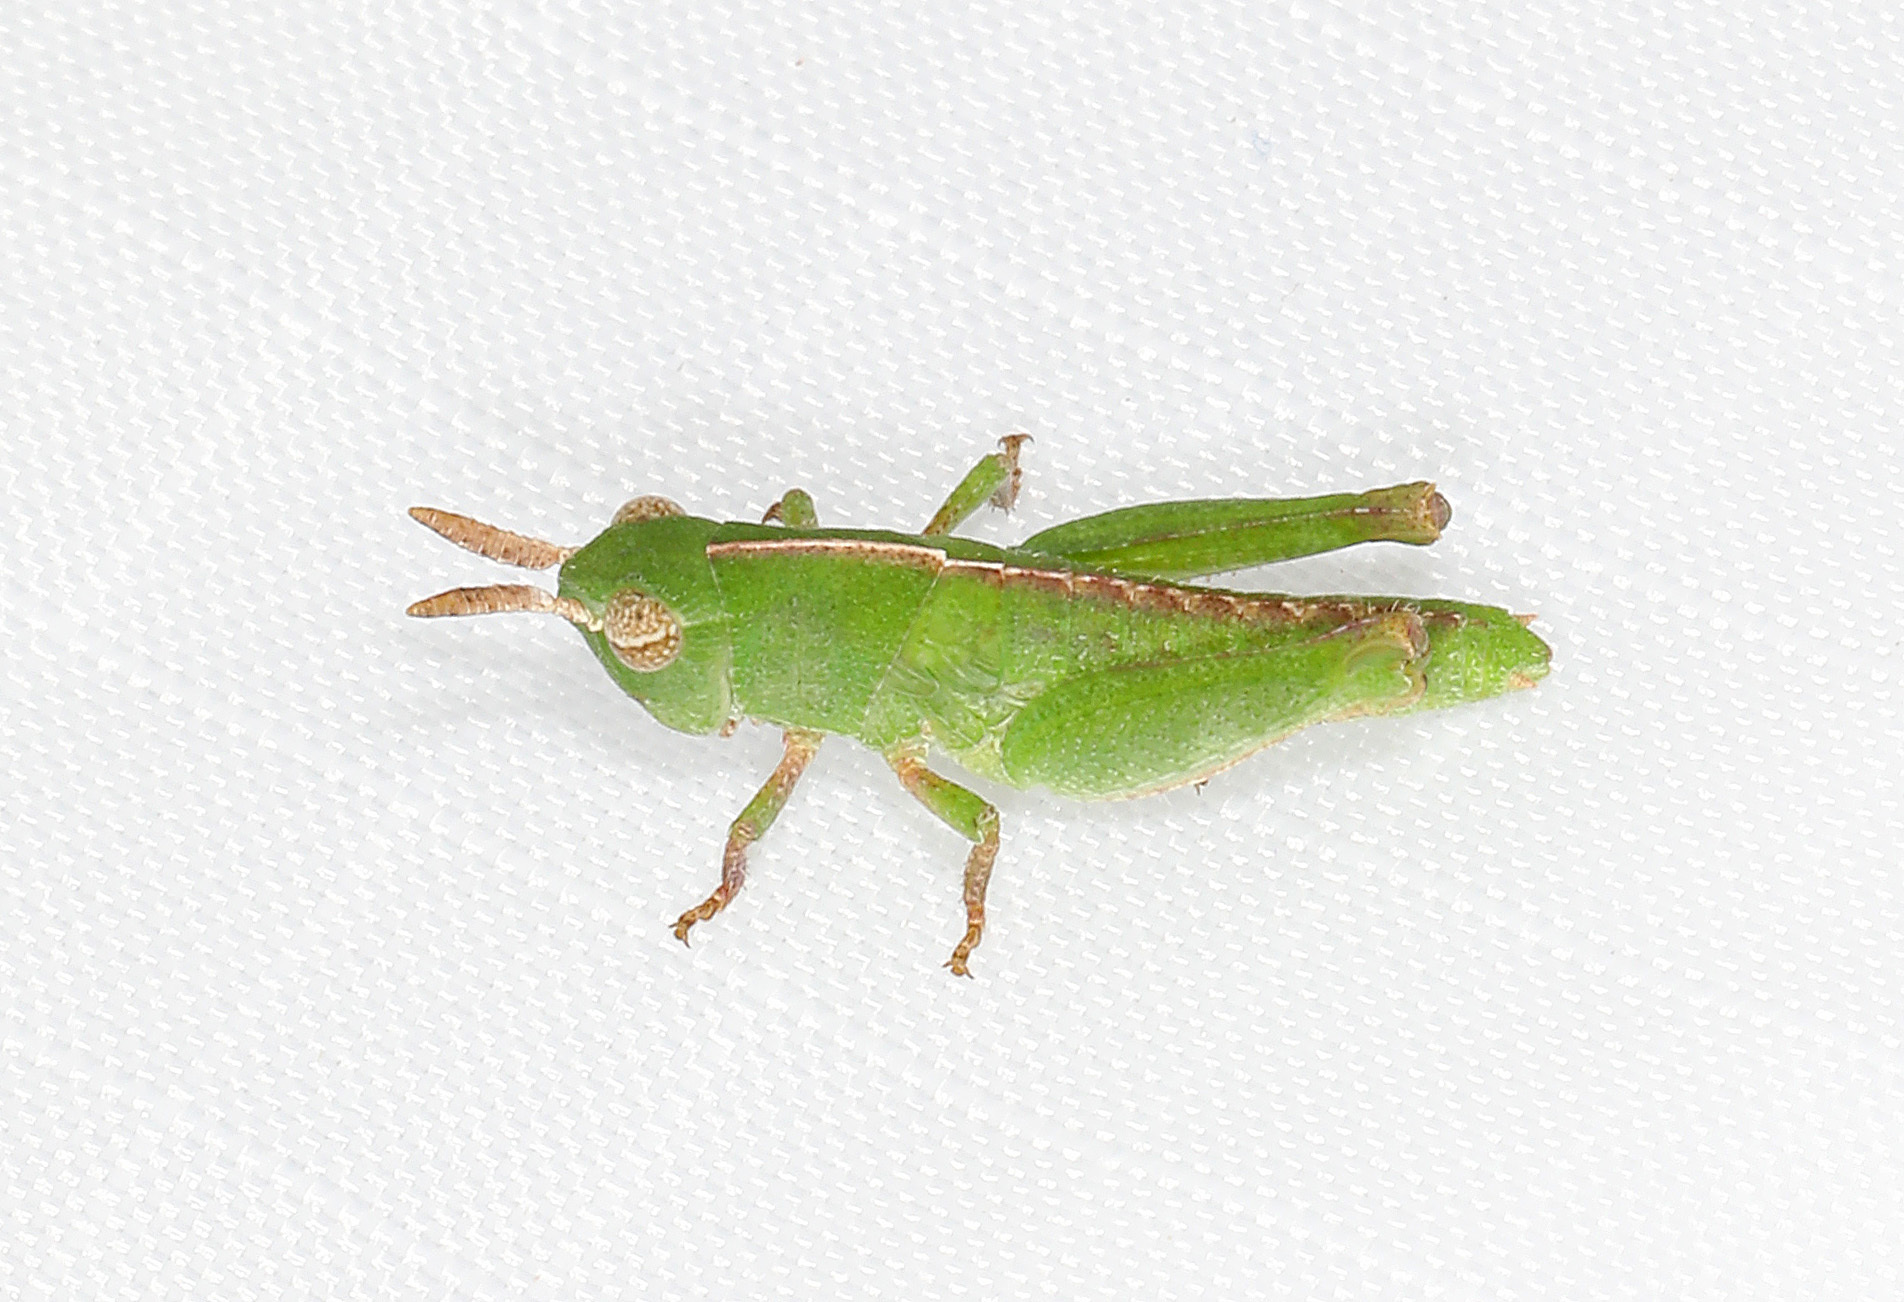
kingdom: Animalia
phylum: Arthropoda
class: Insecta
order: Orthoptera
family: Acrididae
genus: Chortophaga
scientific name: Chortophaga viridifasciata
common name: Green-striped grasshopper
